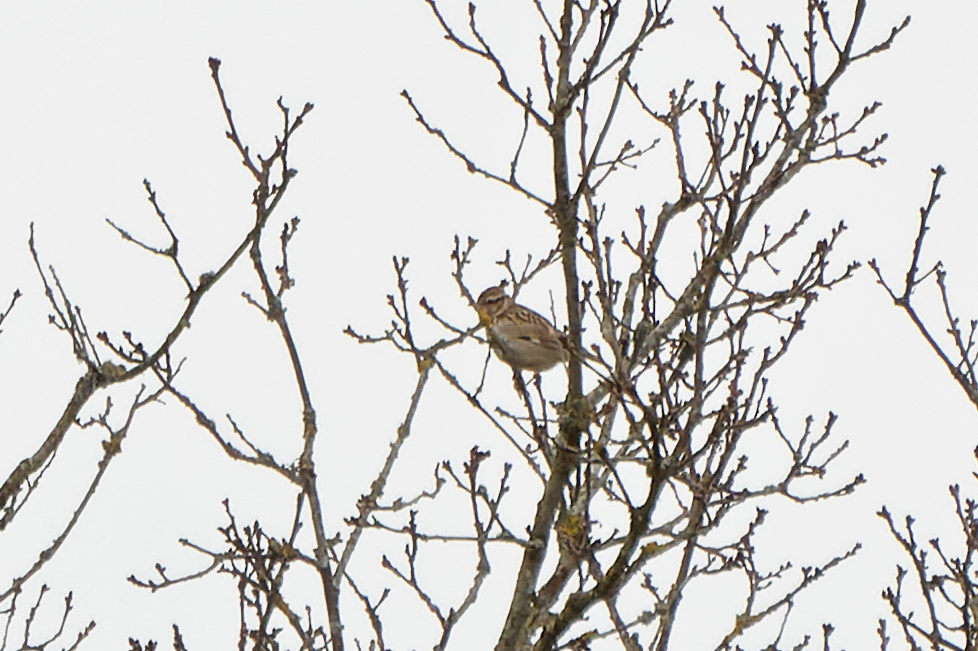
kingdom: Animalia
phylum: Chordata
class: Aves
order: Passeriformes
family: Alaudidae
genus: Lullula
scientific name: Lullula arborea
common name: Woodlark
